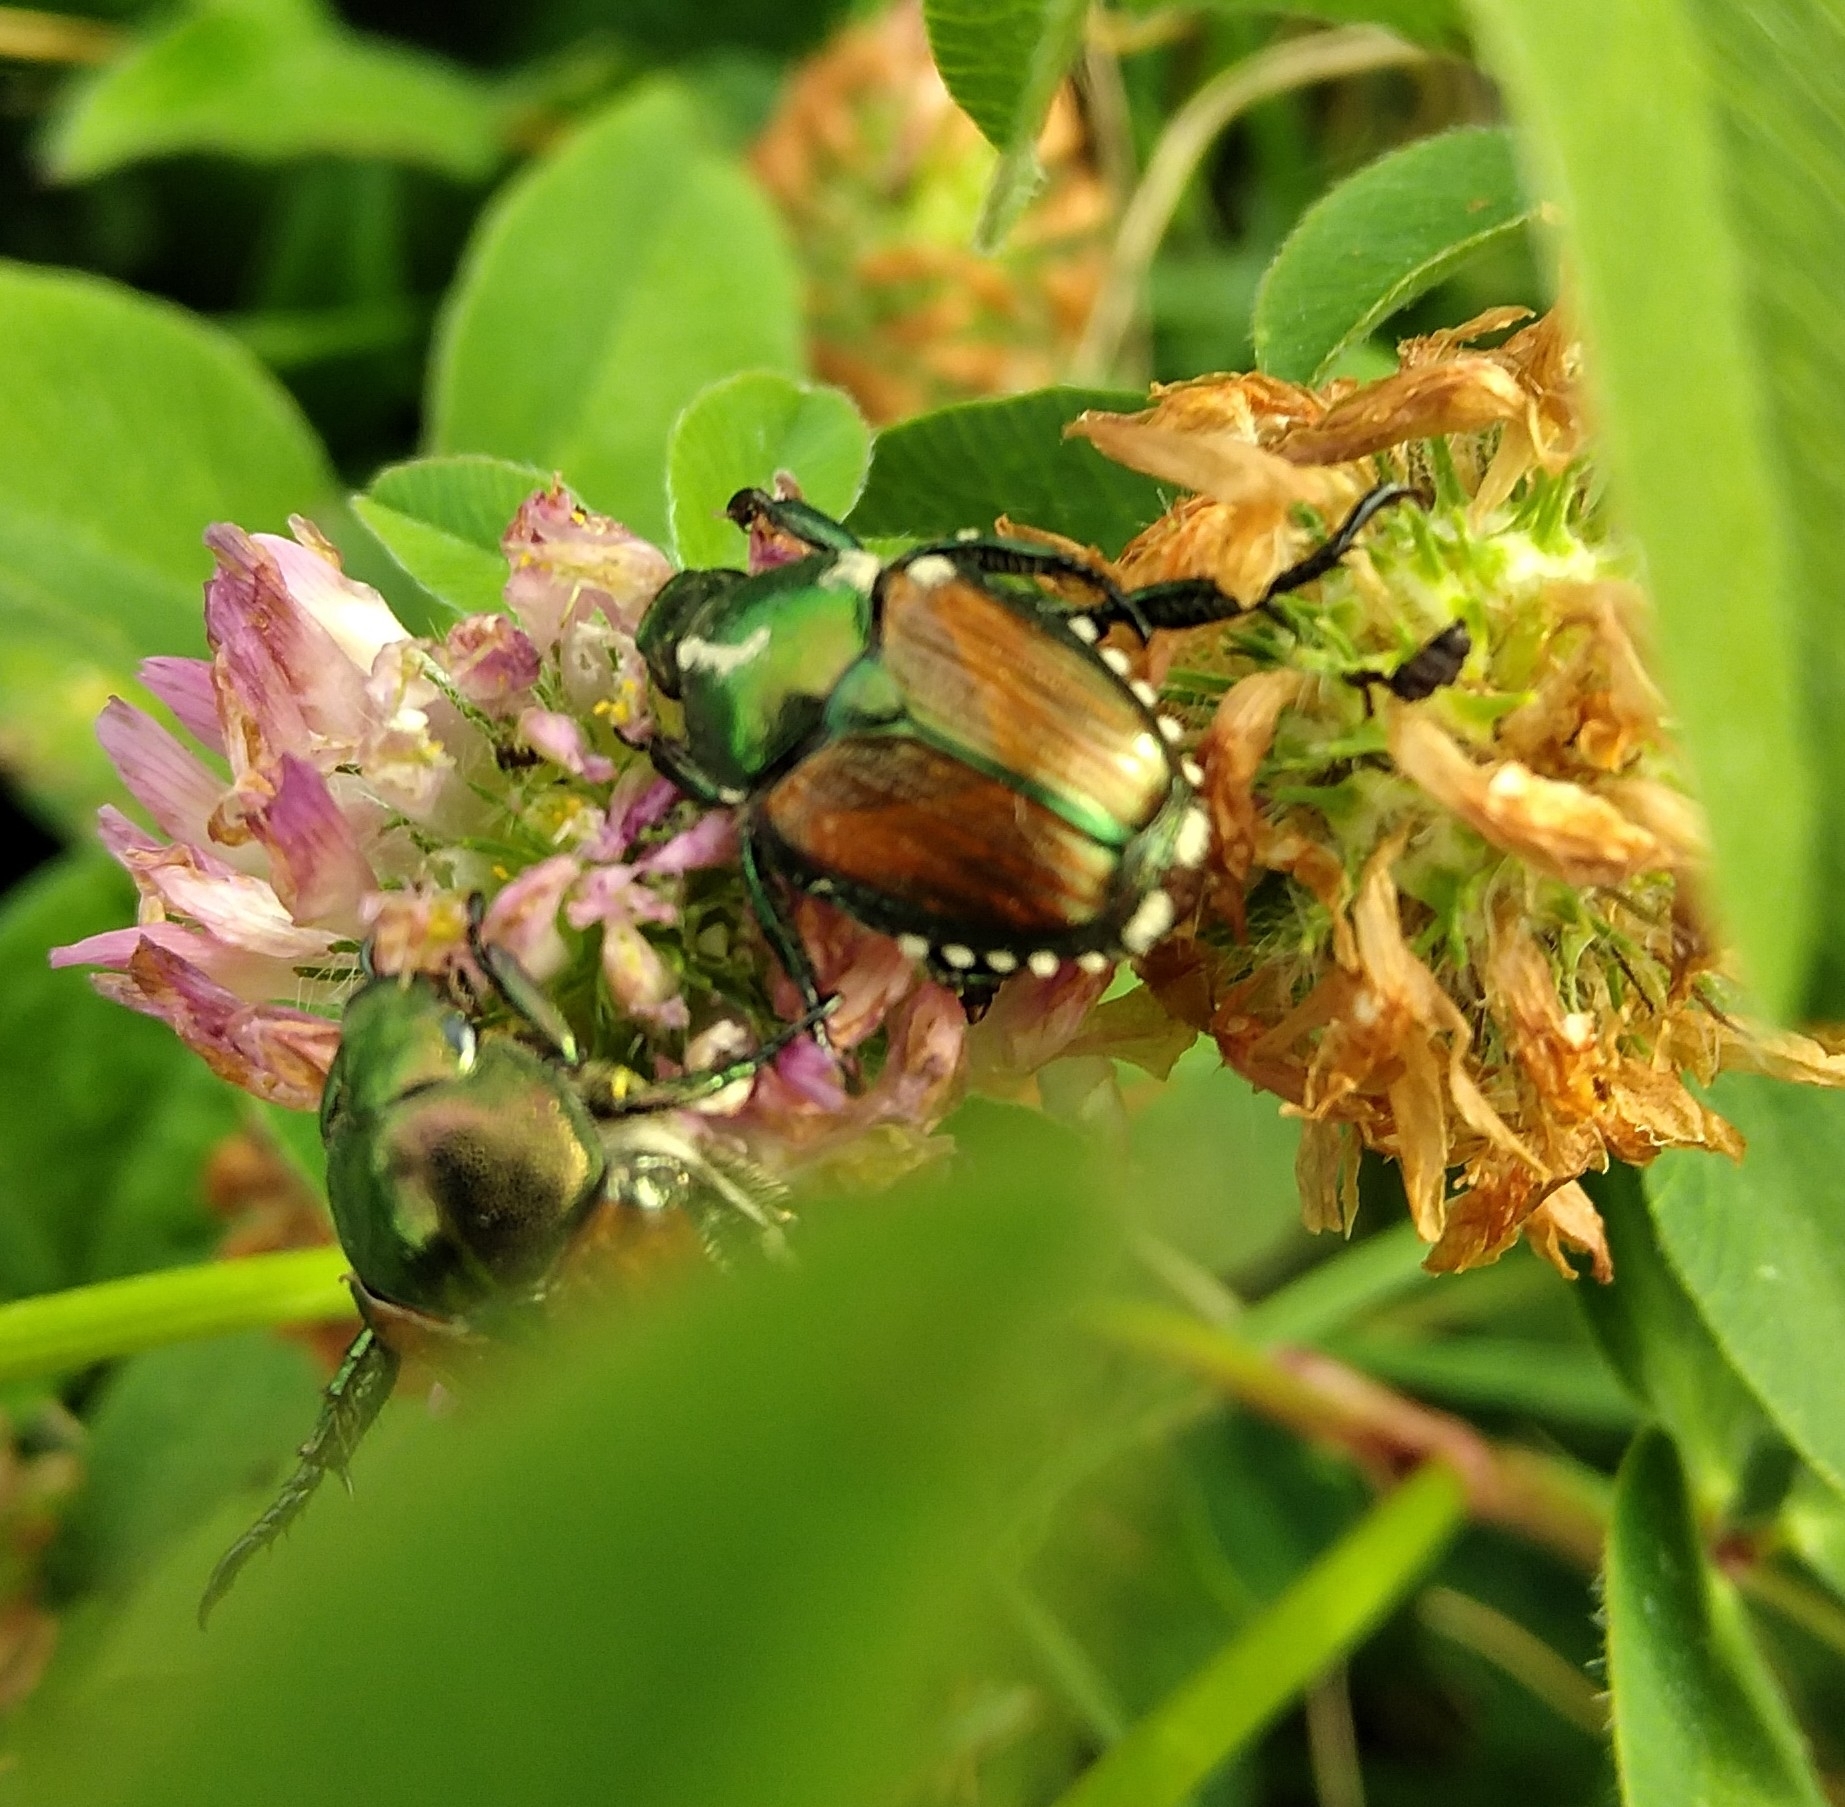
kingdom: Animalia
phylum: Arthropoda
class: Insecta
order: Coleoptera
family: Scarabaeidae
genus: Popillia
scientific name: Popillia japonica
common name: Japanese beetle
